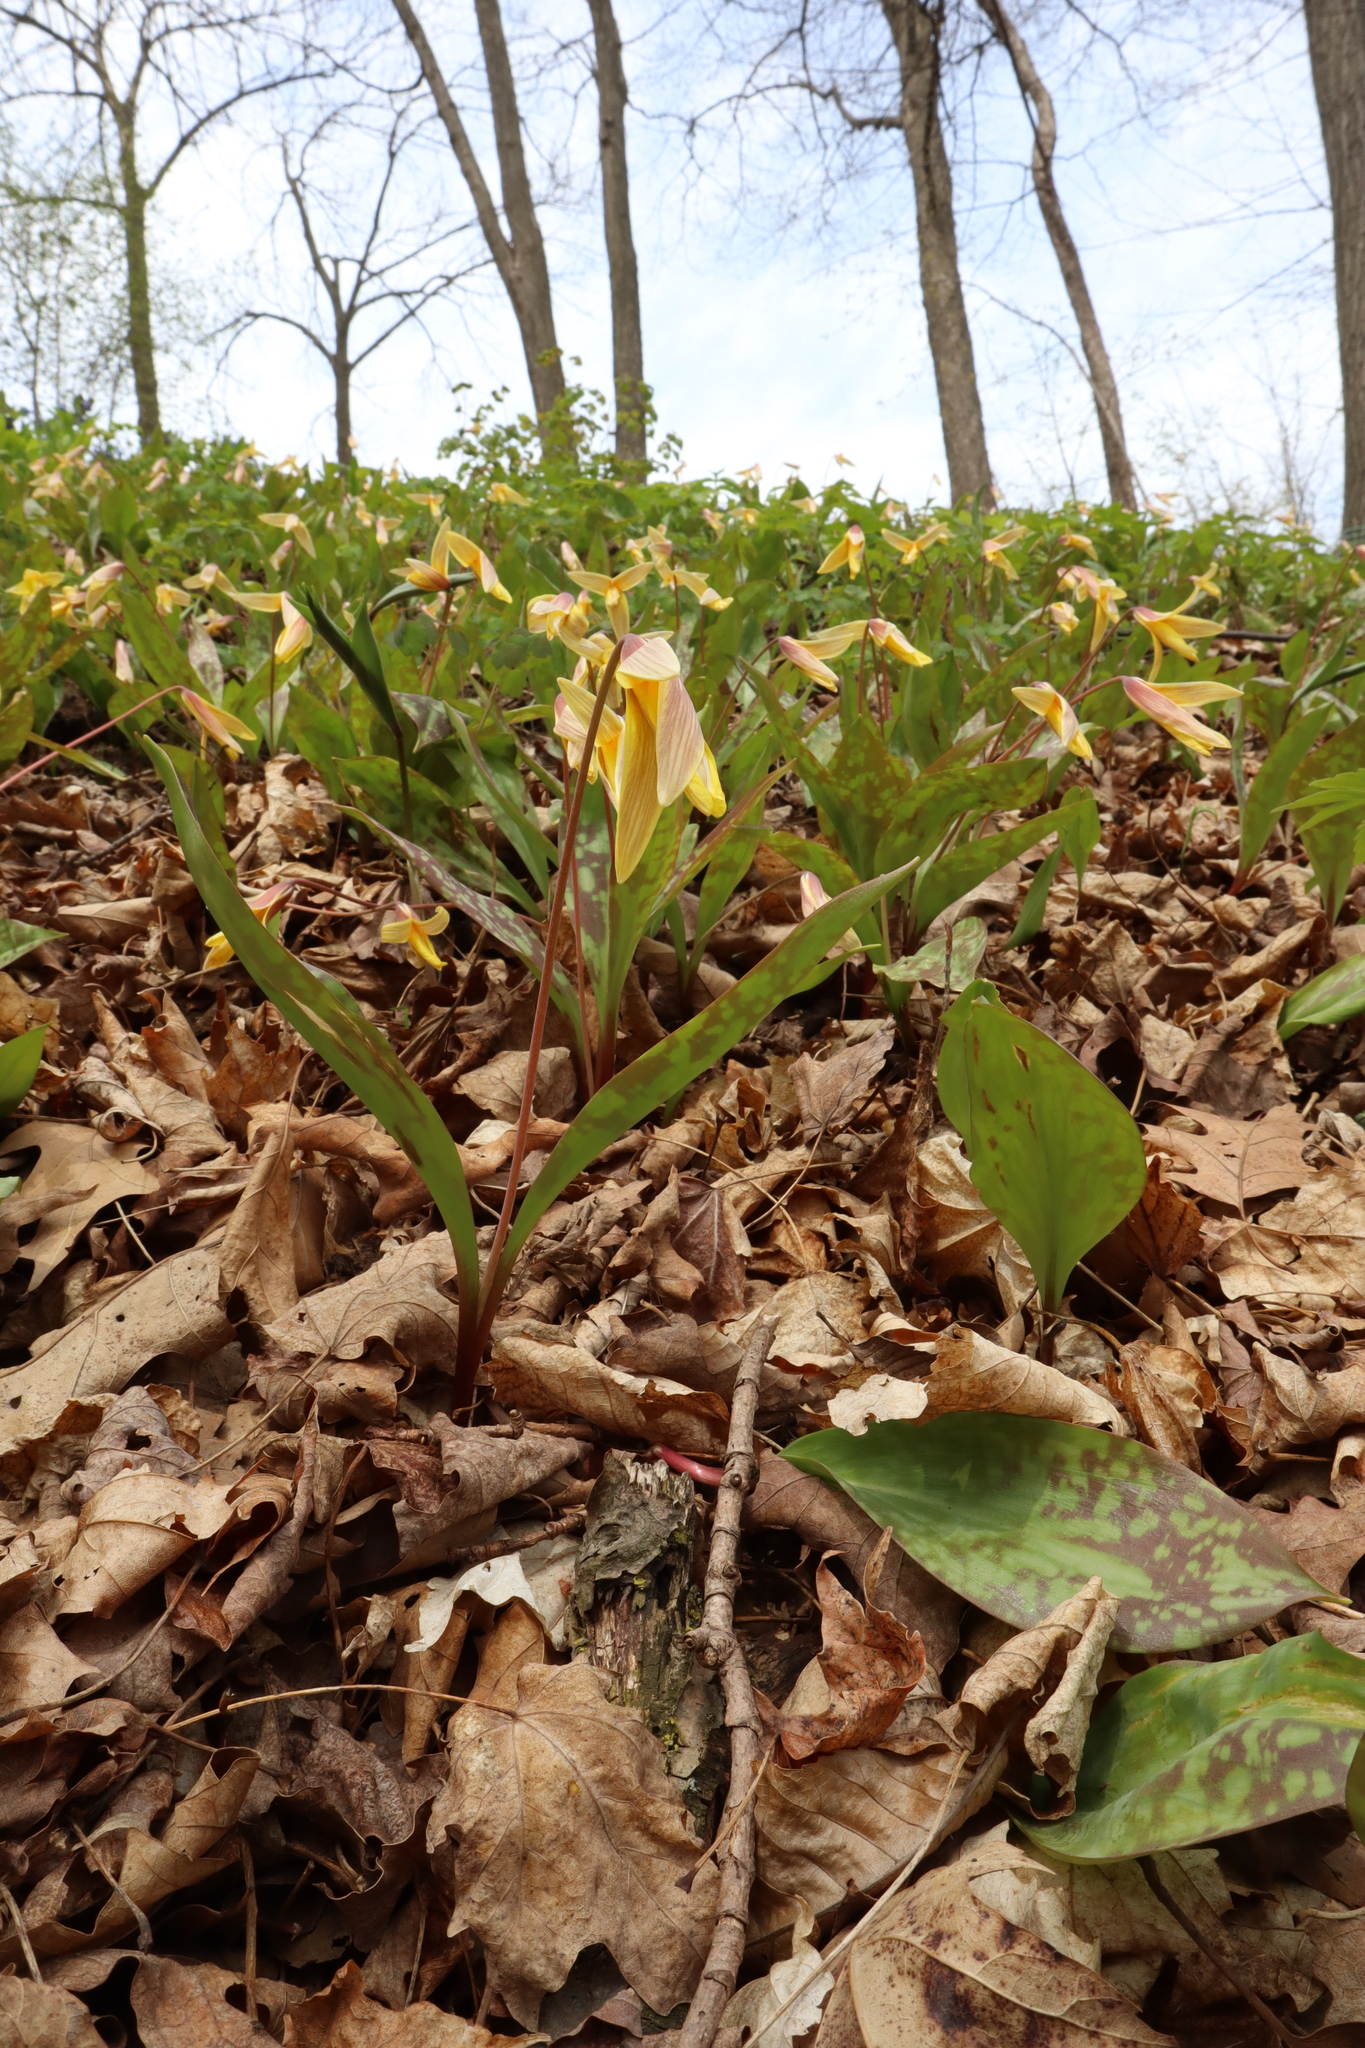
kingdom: Plantae
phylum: Tracheophyta
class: Liliopsida
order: Liliales
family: Liliaceae
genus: Erythronium
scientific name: Erythronium americanum
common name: Yellow adder's-tongue
